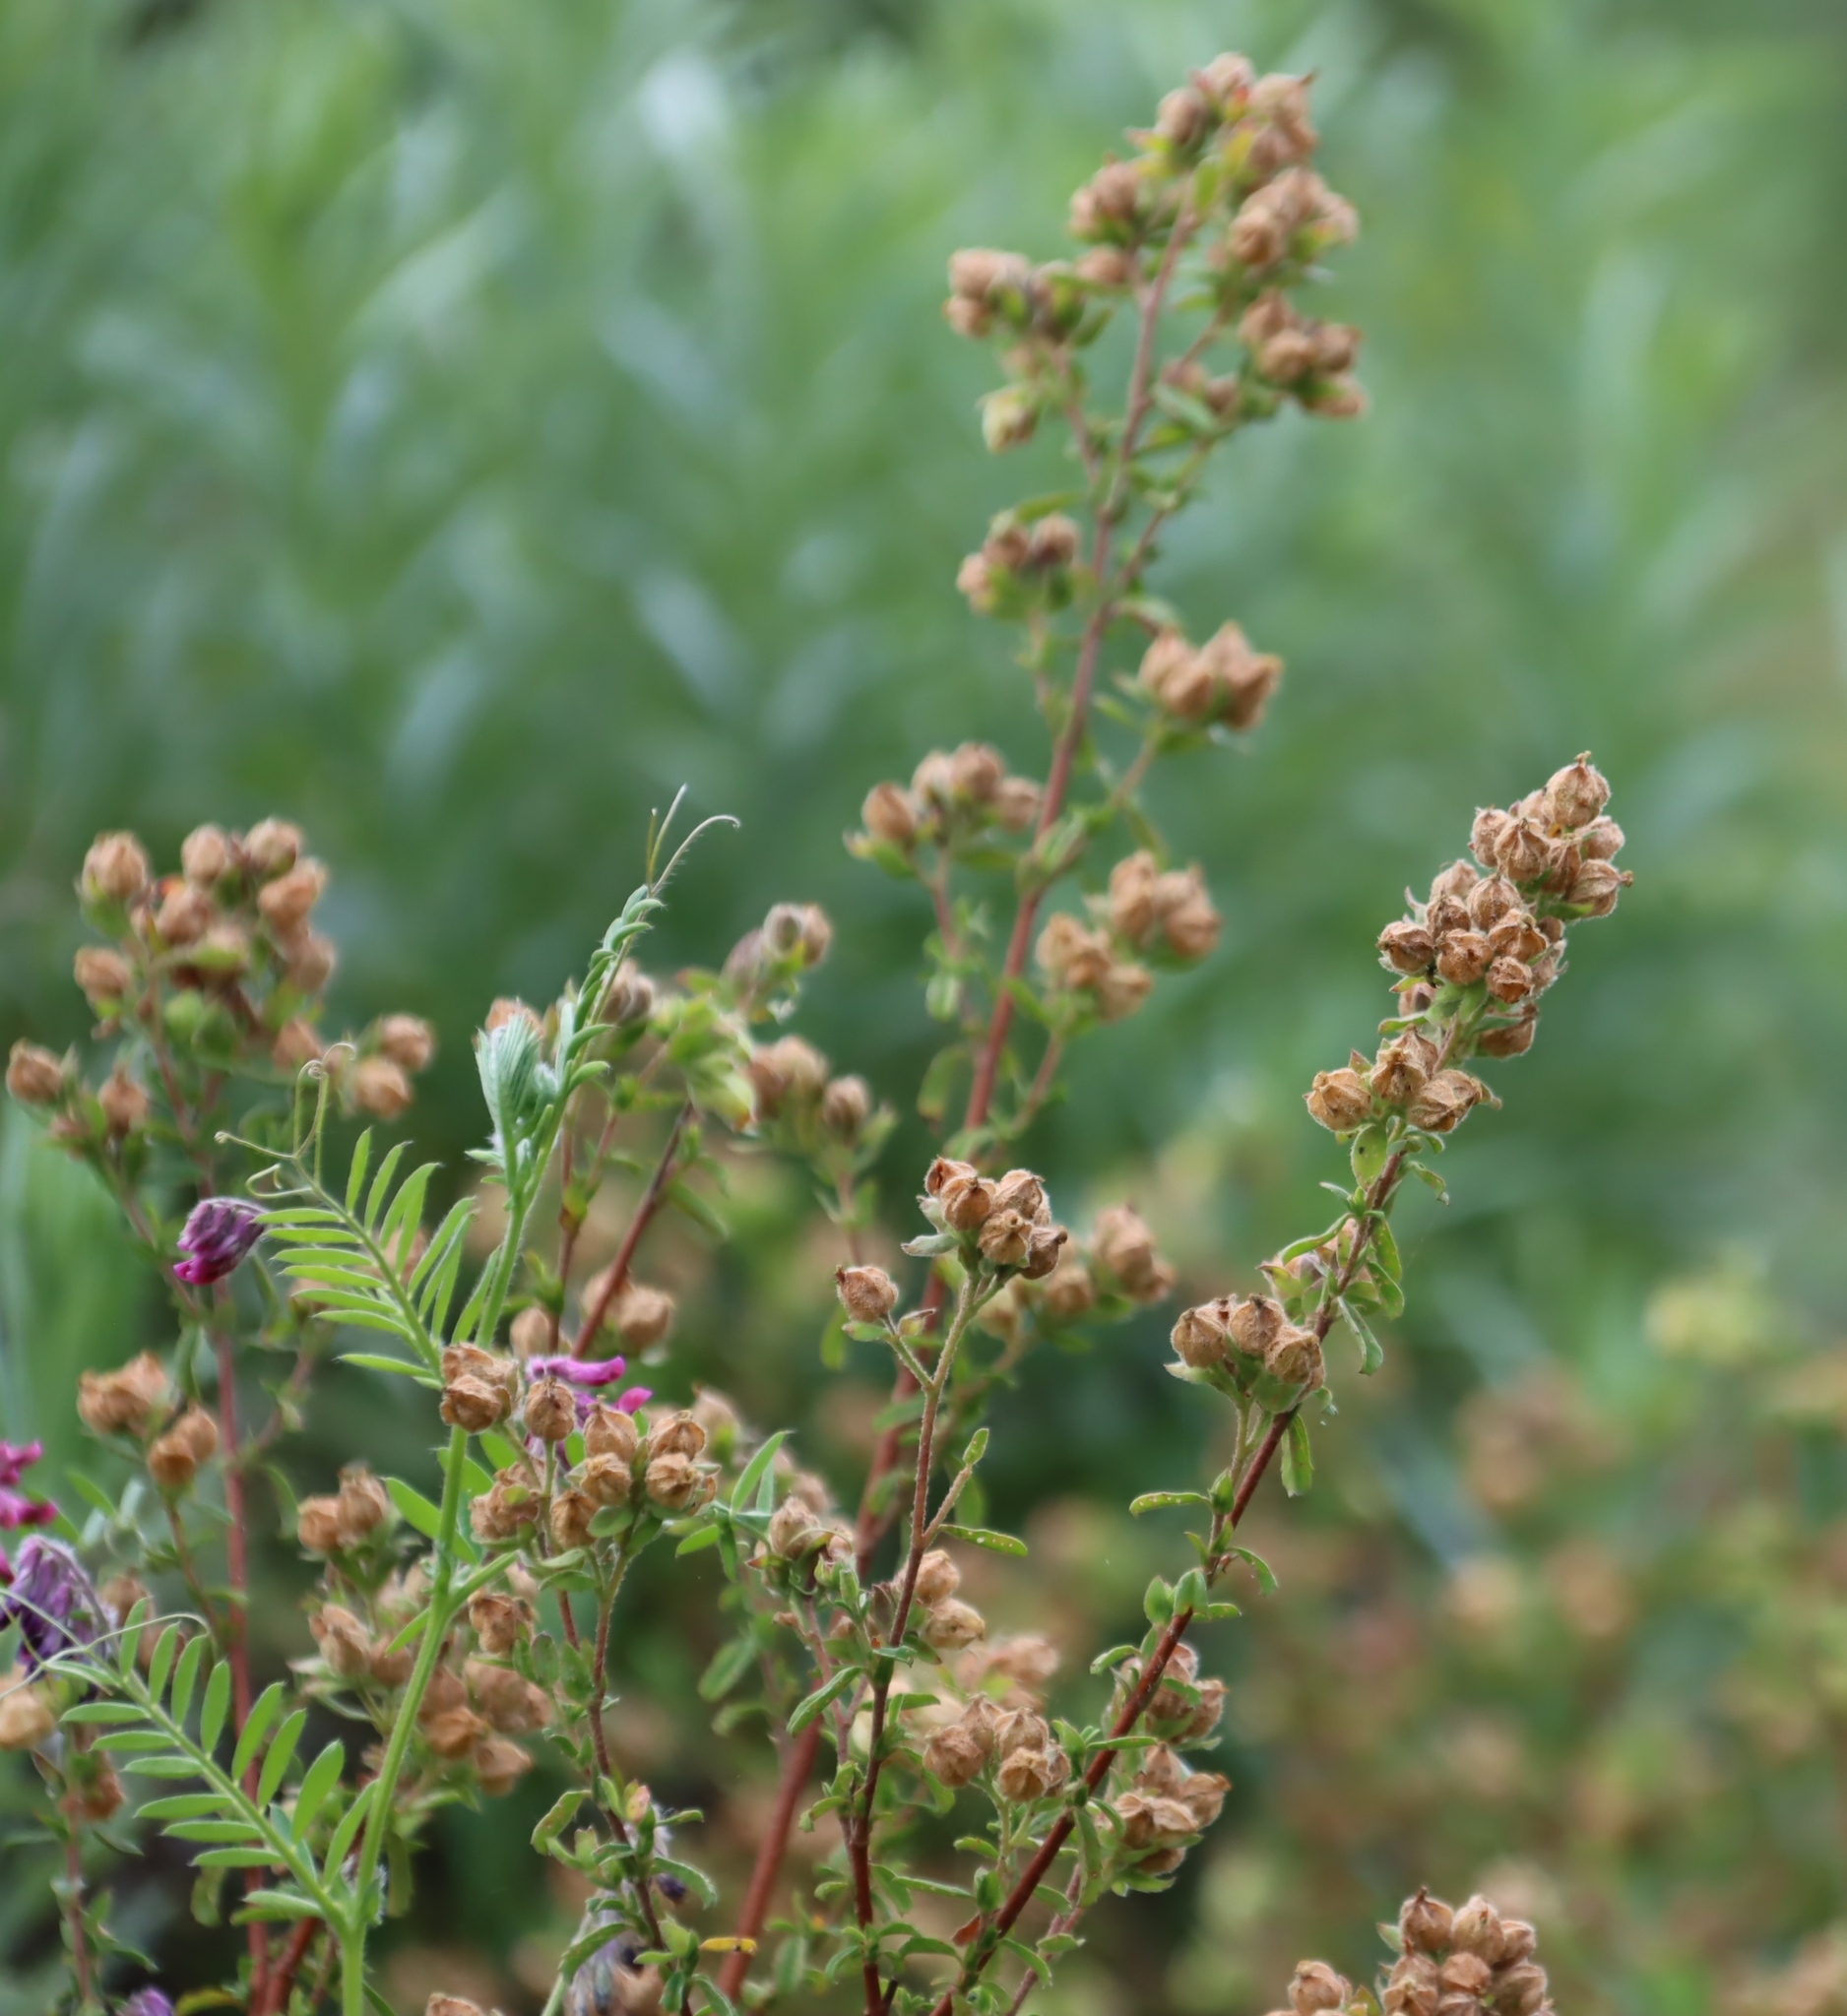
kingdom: Plantae
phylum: Tracheophyta
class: Magnoliopsida
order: Malvales
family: Malvaceae
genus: Hermannia
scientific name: Hermannia hyssopifolia
